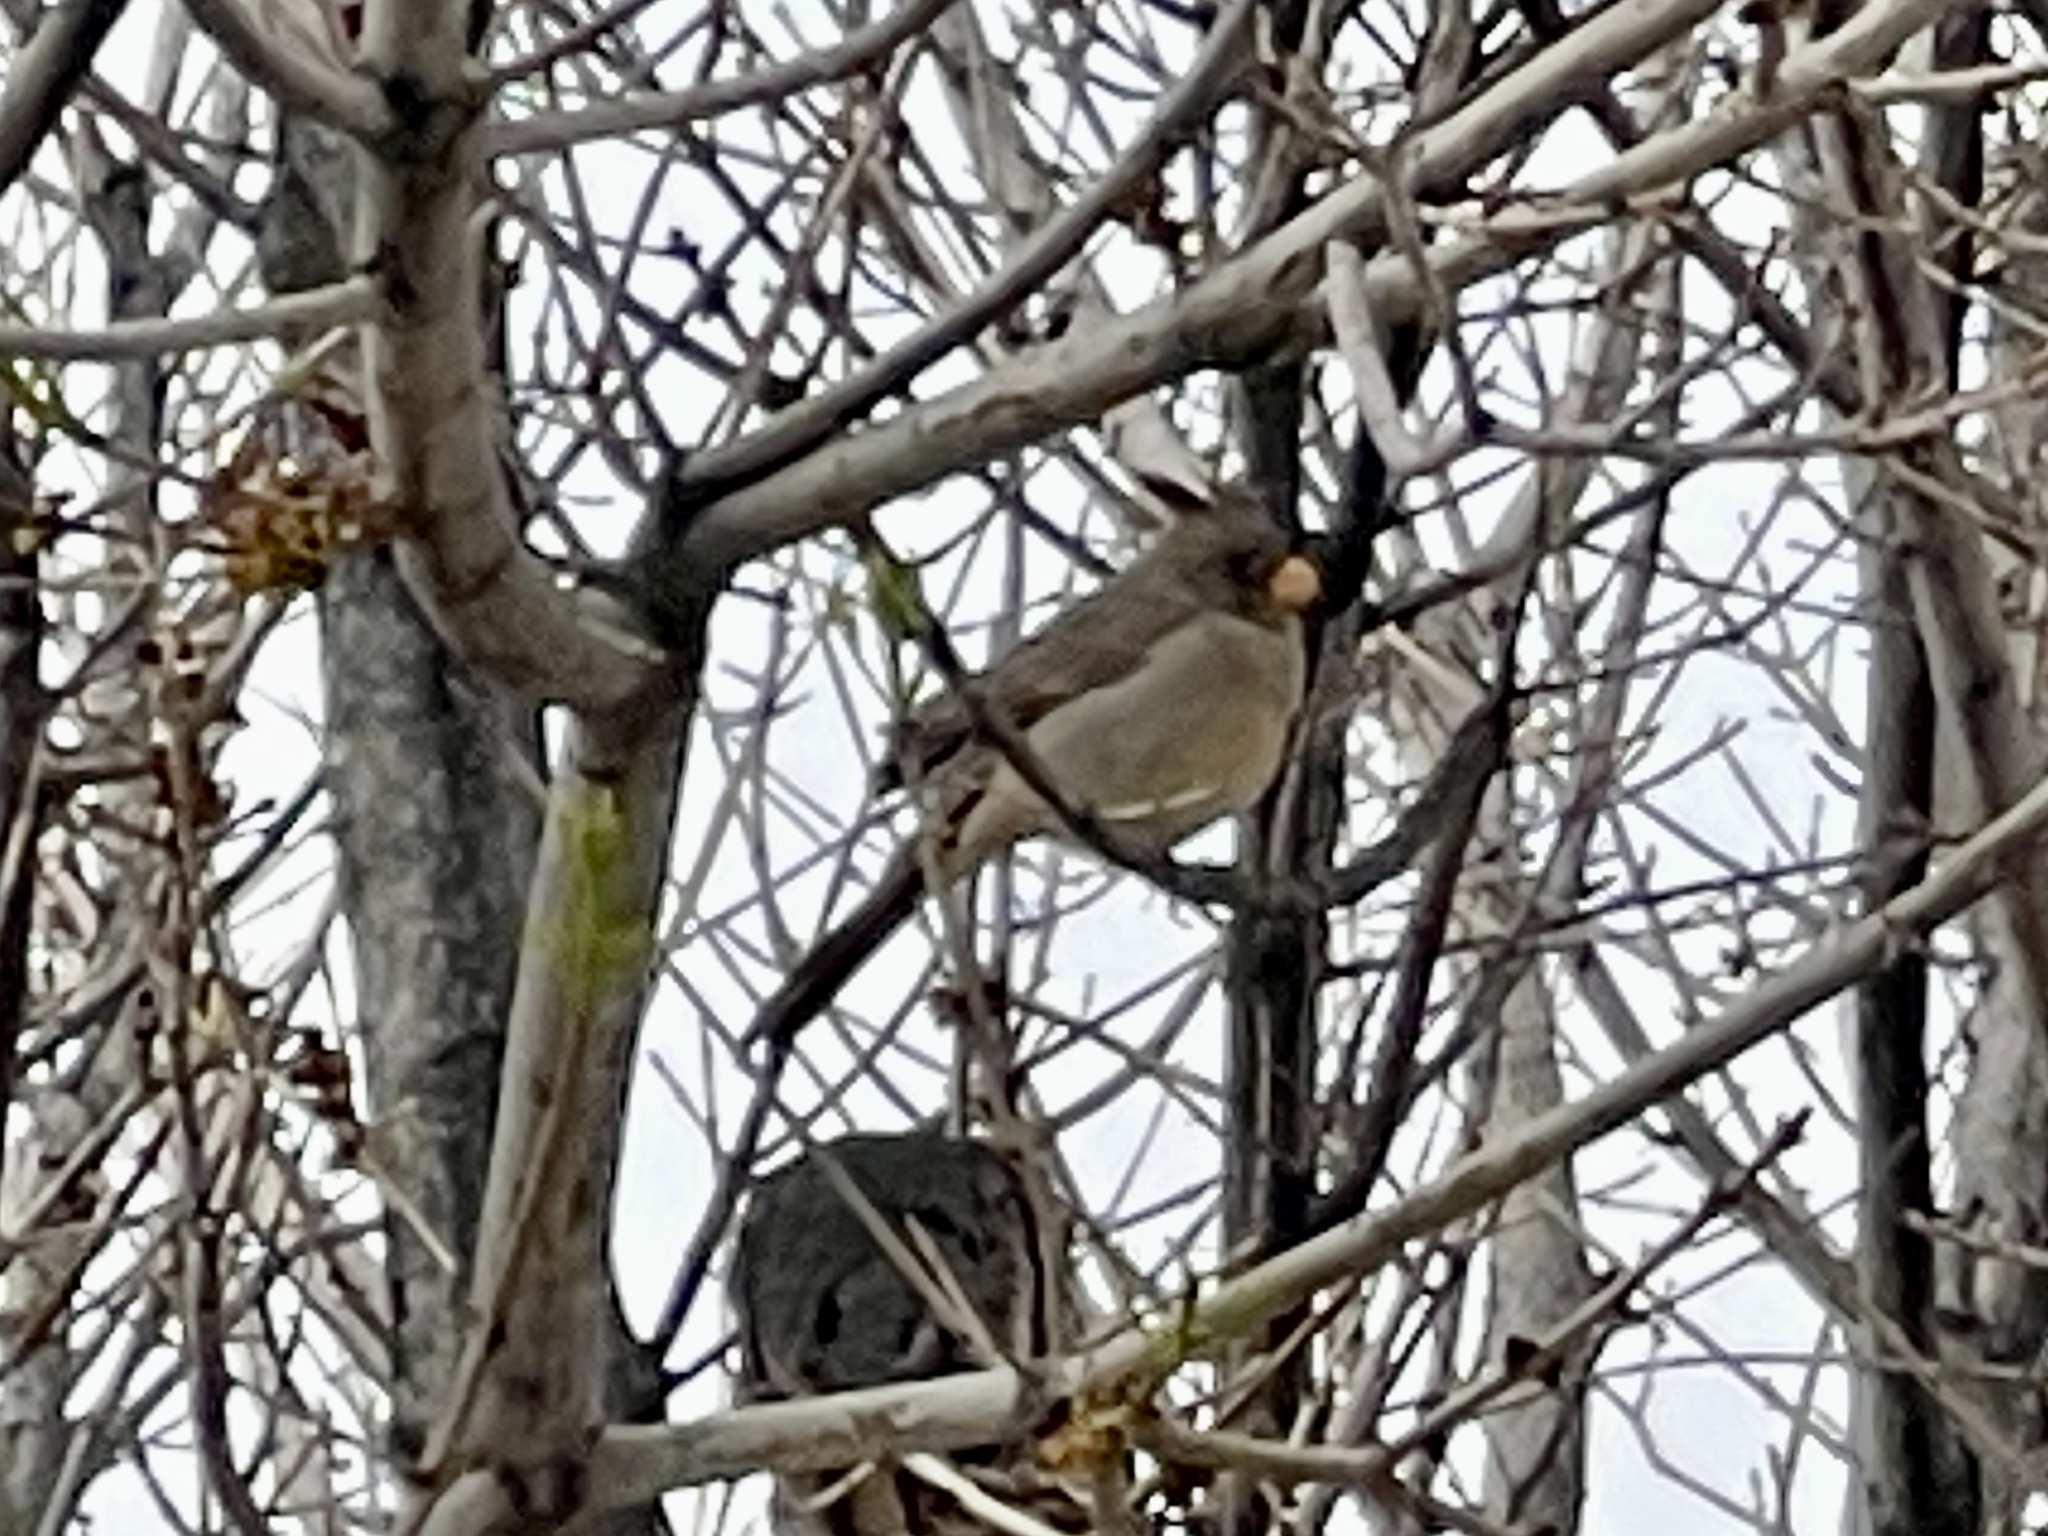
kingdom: Animalia
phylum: Chordata
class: Aves
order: Passeriformes
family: Cardinalidae
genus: Cardinalis
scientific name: Cardinalis sinuatus
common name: Pyrrhuloxia
